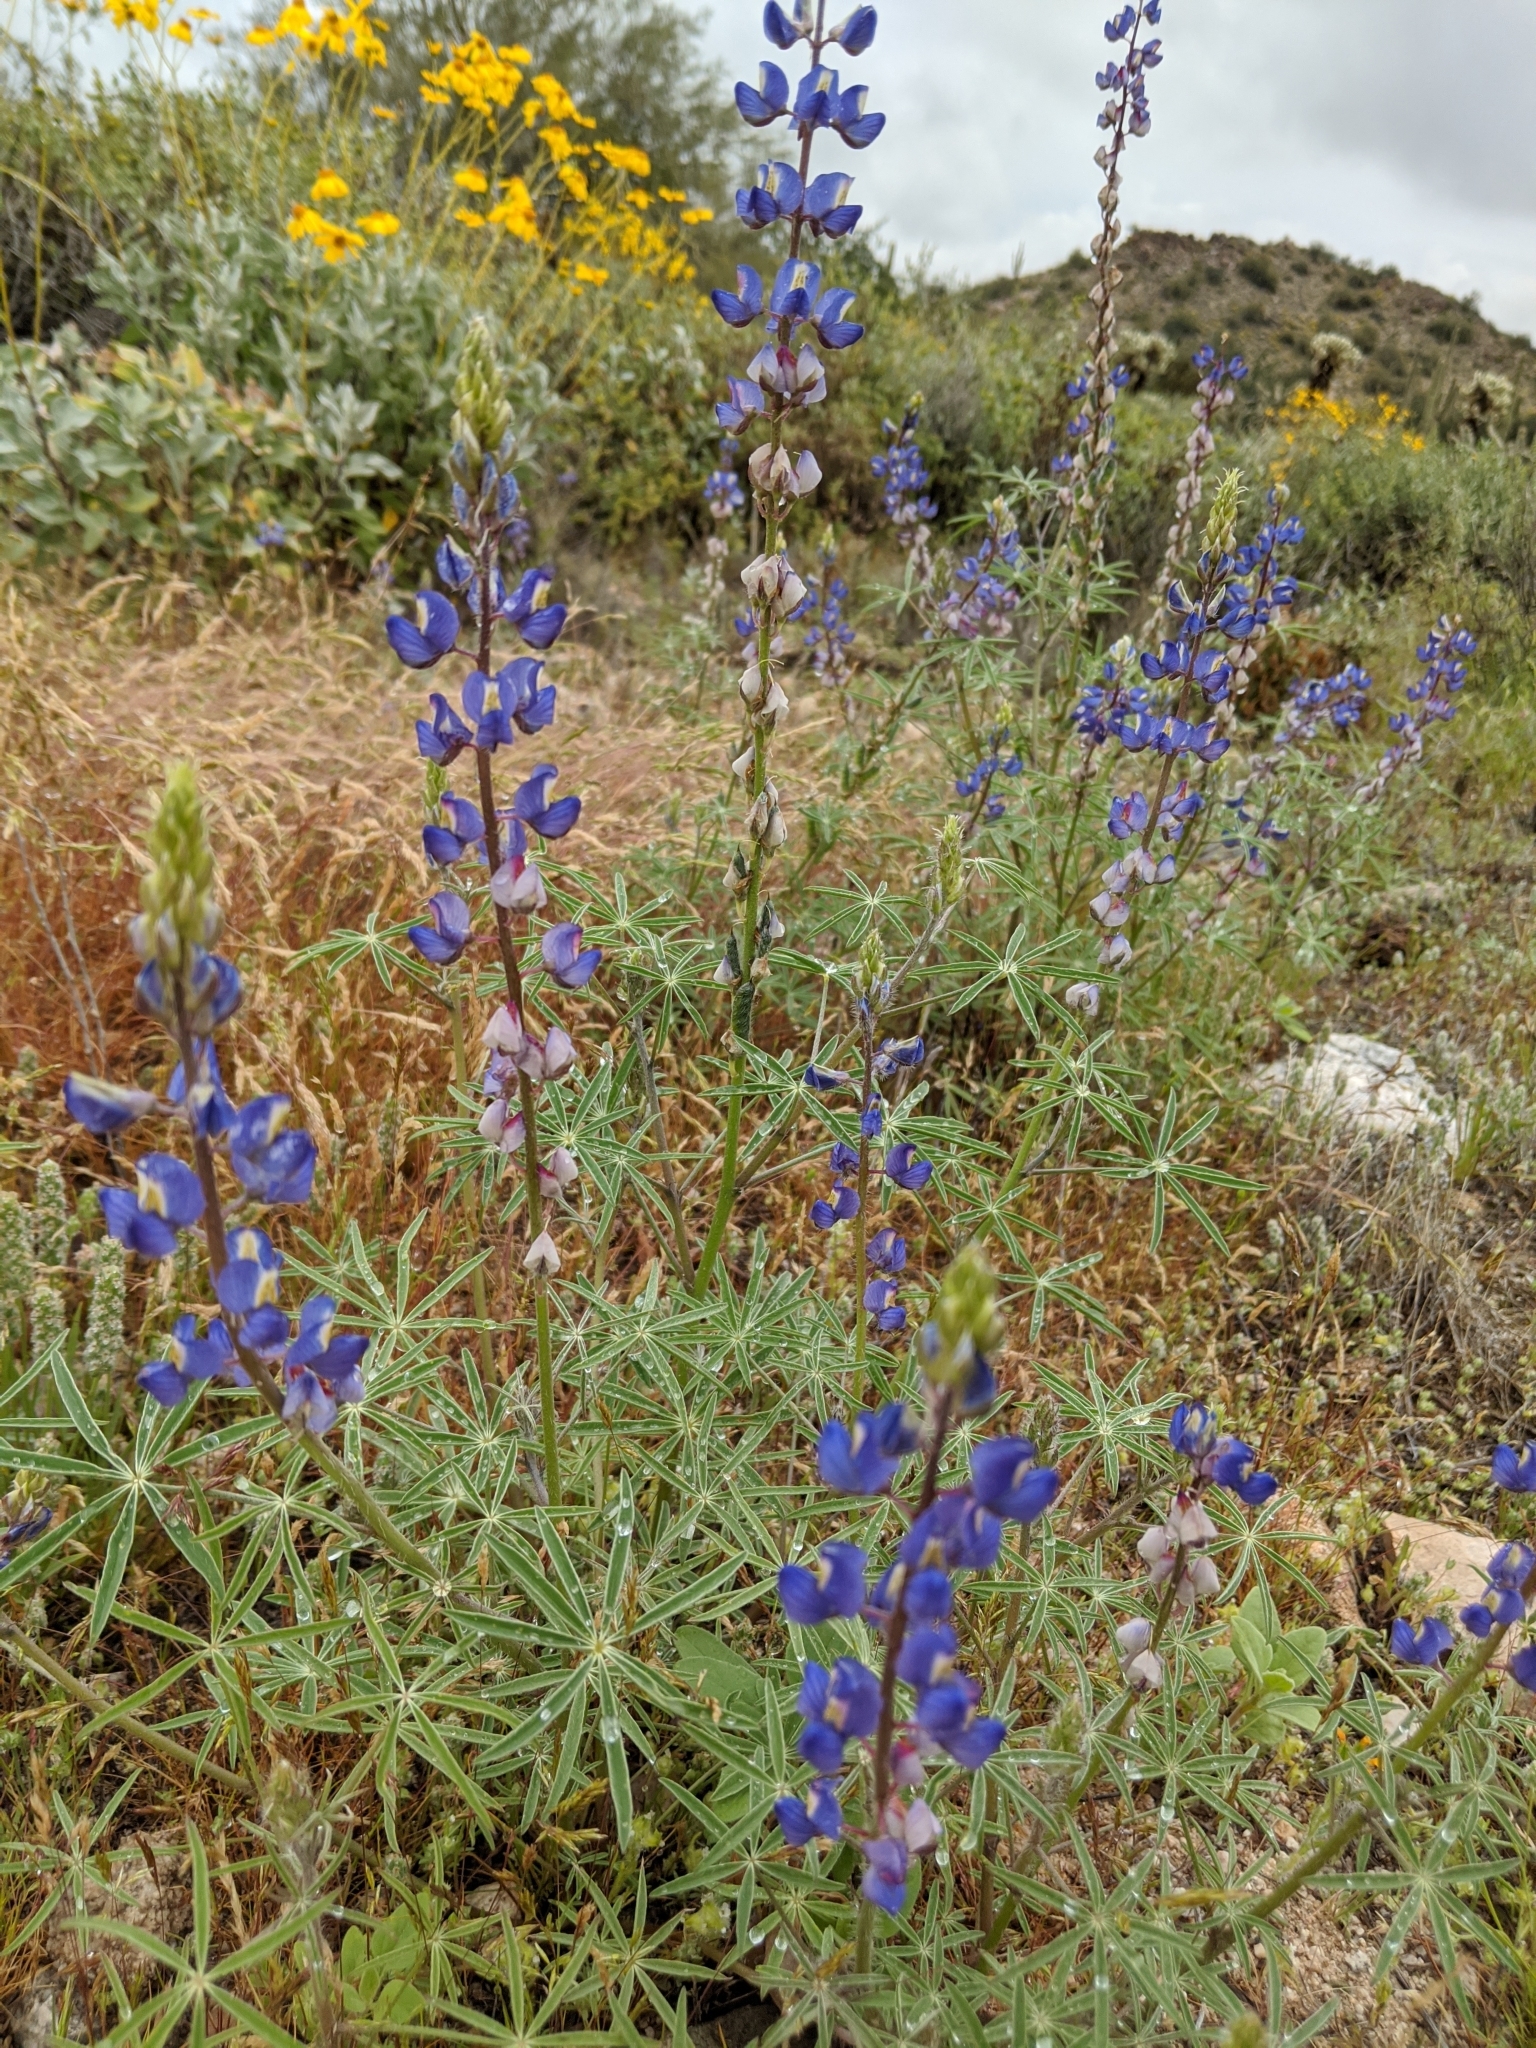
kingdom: Plantae
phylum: Tracheophyta
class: Magnoliopsida
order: Fabales
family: Fabaceae
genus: Lupinus
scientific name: Lupinus sparsiflorus
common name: Coulter's lupine
